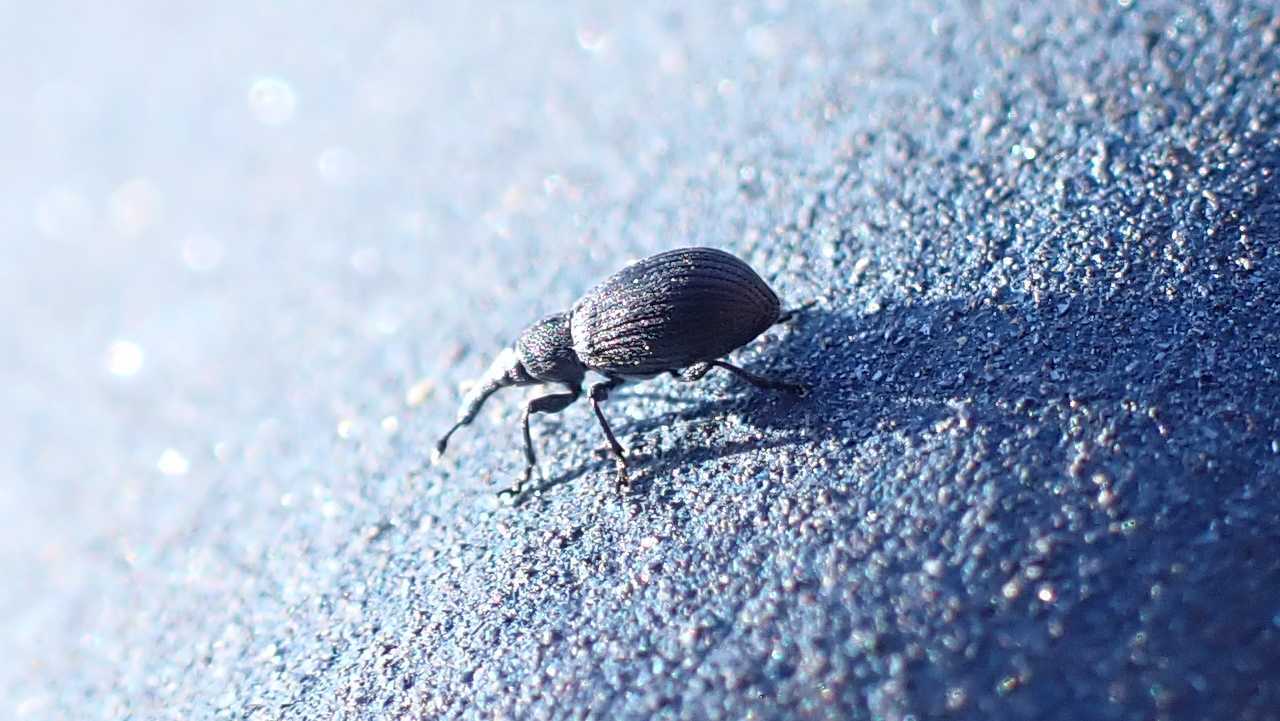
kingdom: Animalia
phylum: Arthropoda
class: Insecta
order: Coleoptera
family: Brentidae
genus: Perapion
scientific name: Perapion
